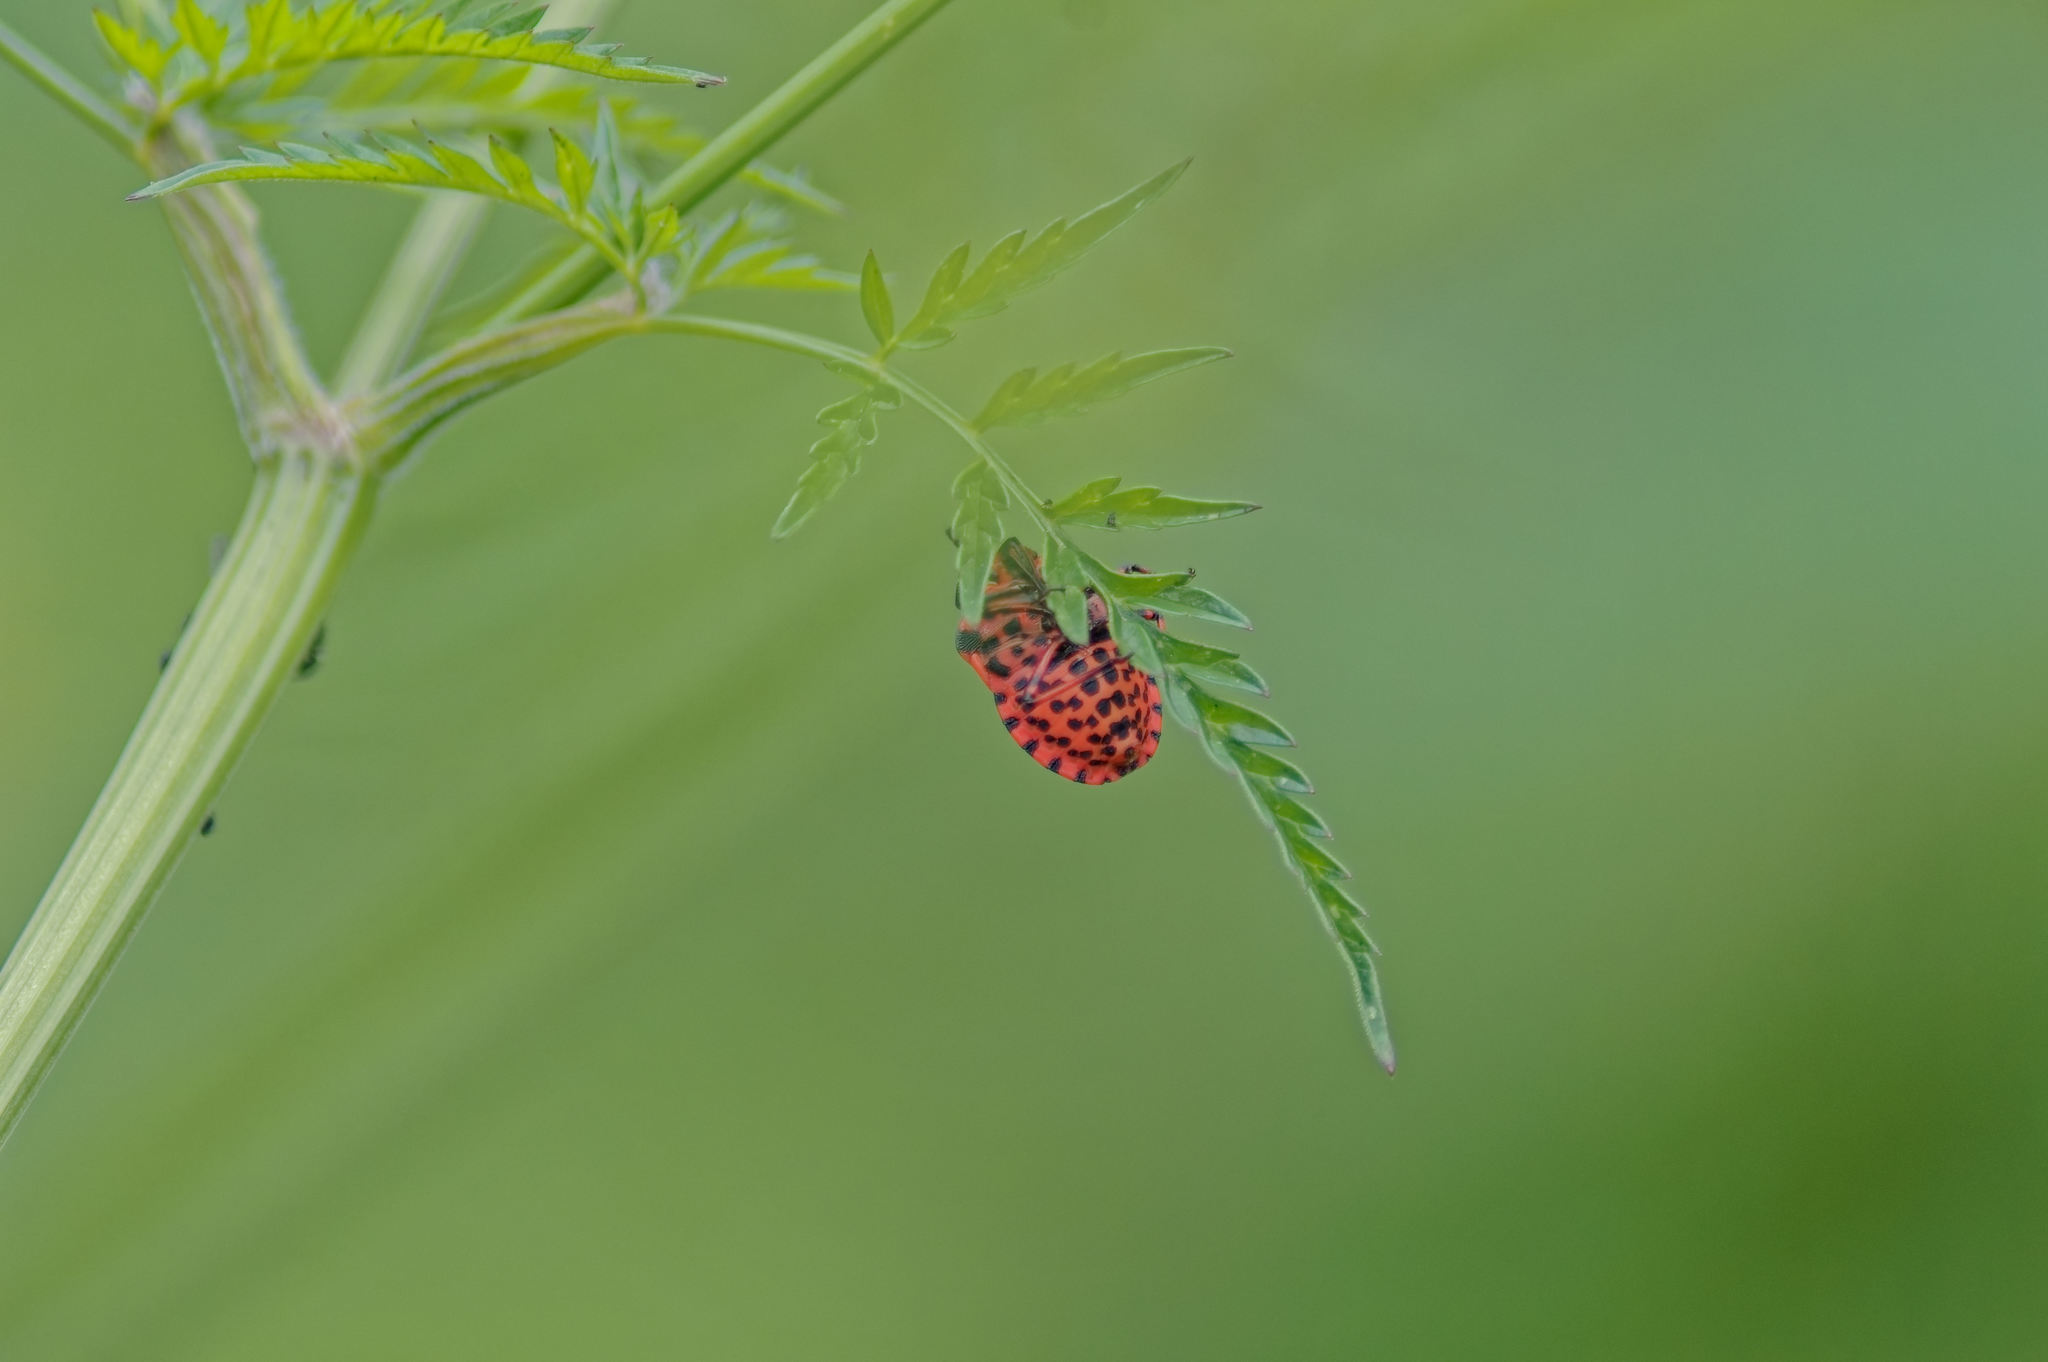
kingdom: Animalia
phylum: Arthropoda
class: Insecta
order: Hemiptera
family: Pentatomidae
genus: Graphosoma
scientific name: Graphosoma italicum
